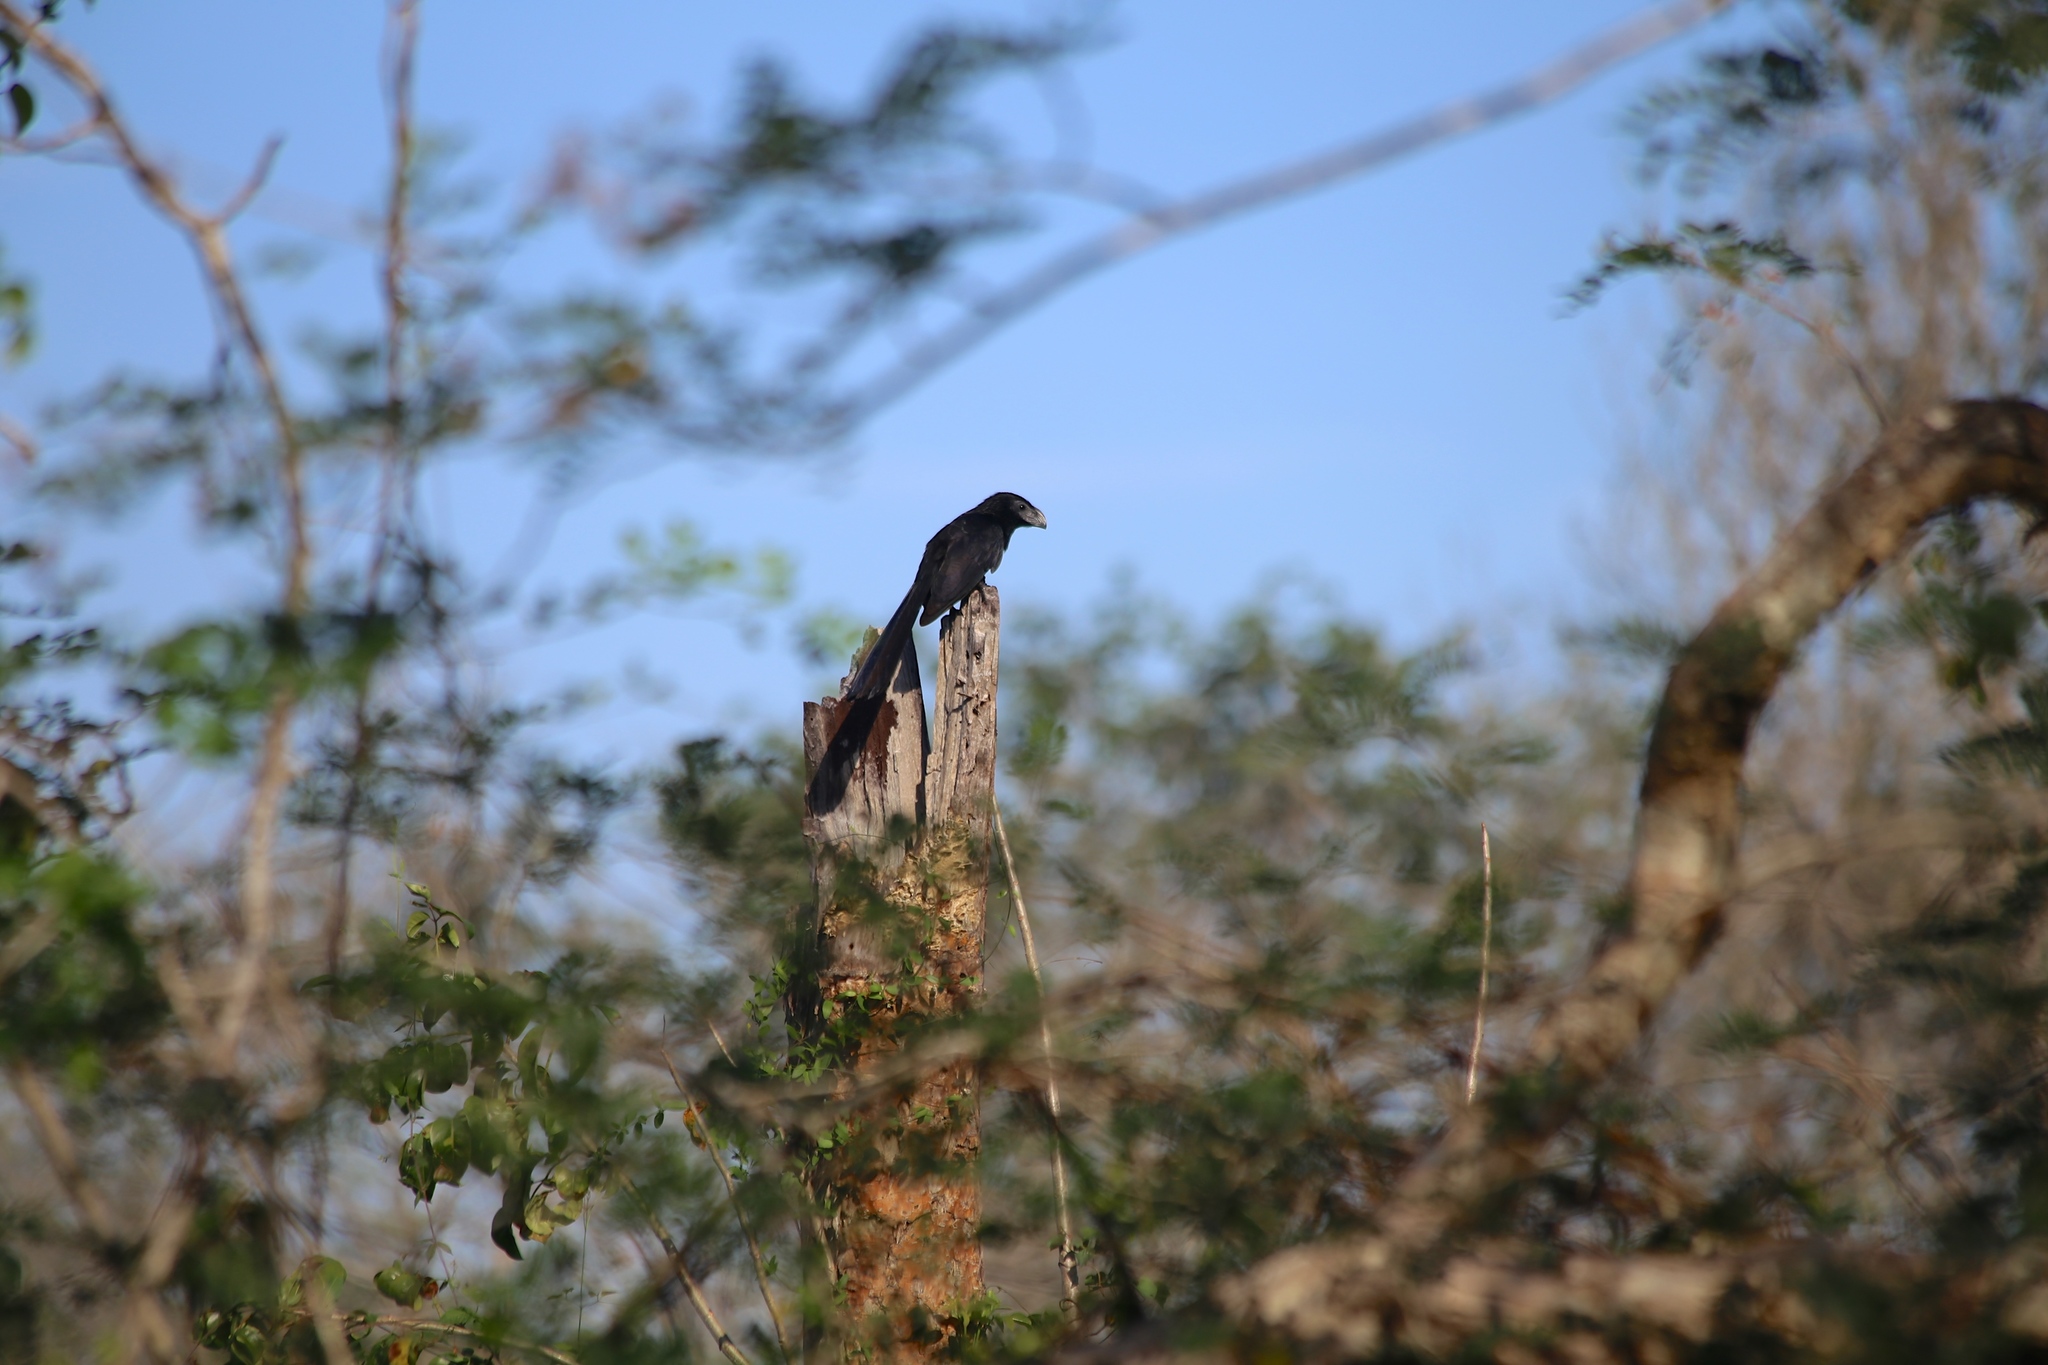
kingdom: Animalia
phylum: Chordata
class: Aves
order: Cuculiformes
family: Cuculidae
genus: Crotophaga
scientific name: Crotophaga sulcirostris
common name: Groove-billed ani
